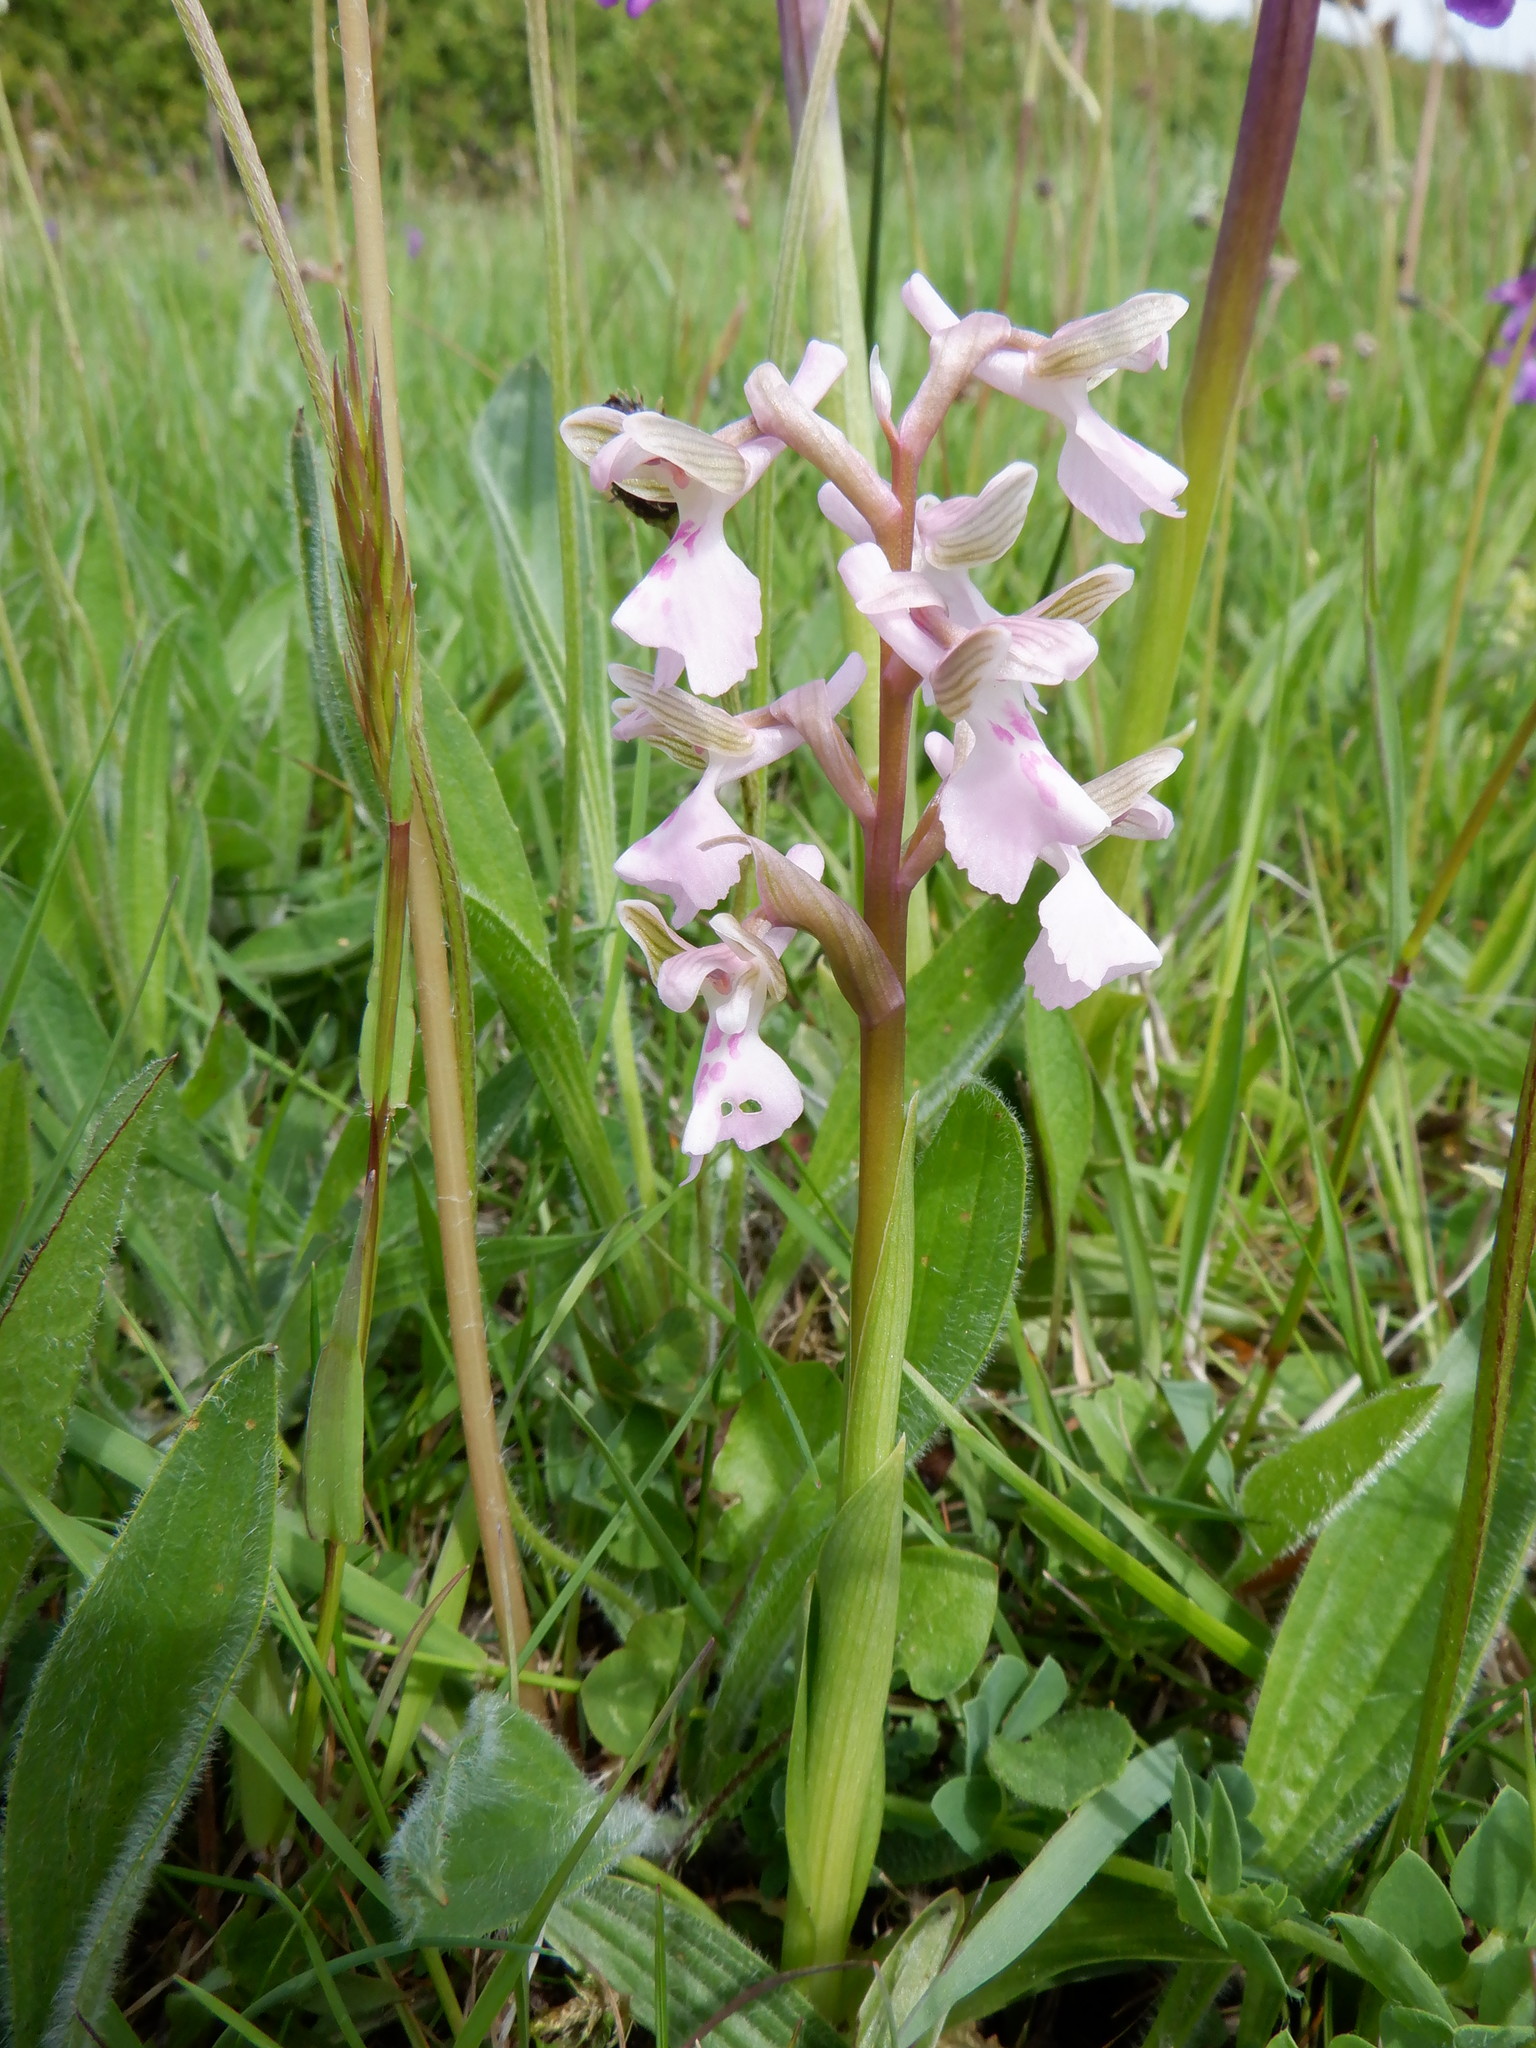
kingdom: Plantae
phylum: Tracheophyta
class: Liliopsida
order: Asparagales
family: Orchidaceae
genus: Anacamptis
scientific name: Anacamptis morio
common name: Green-winged orchid
